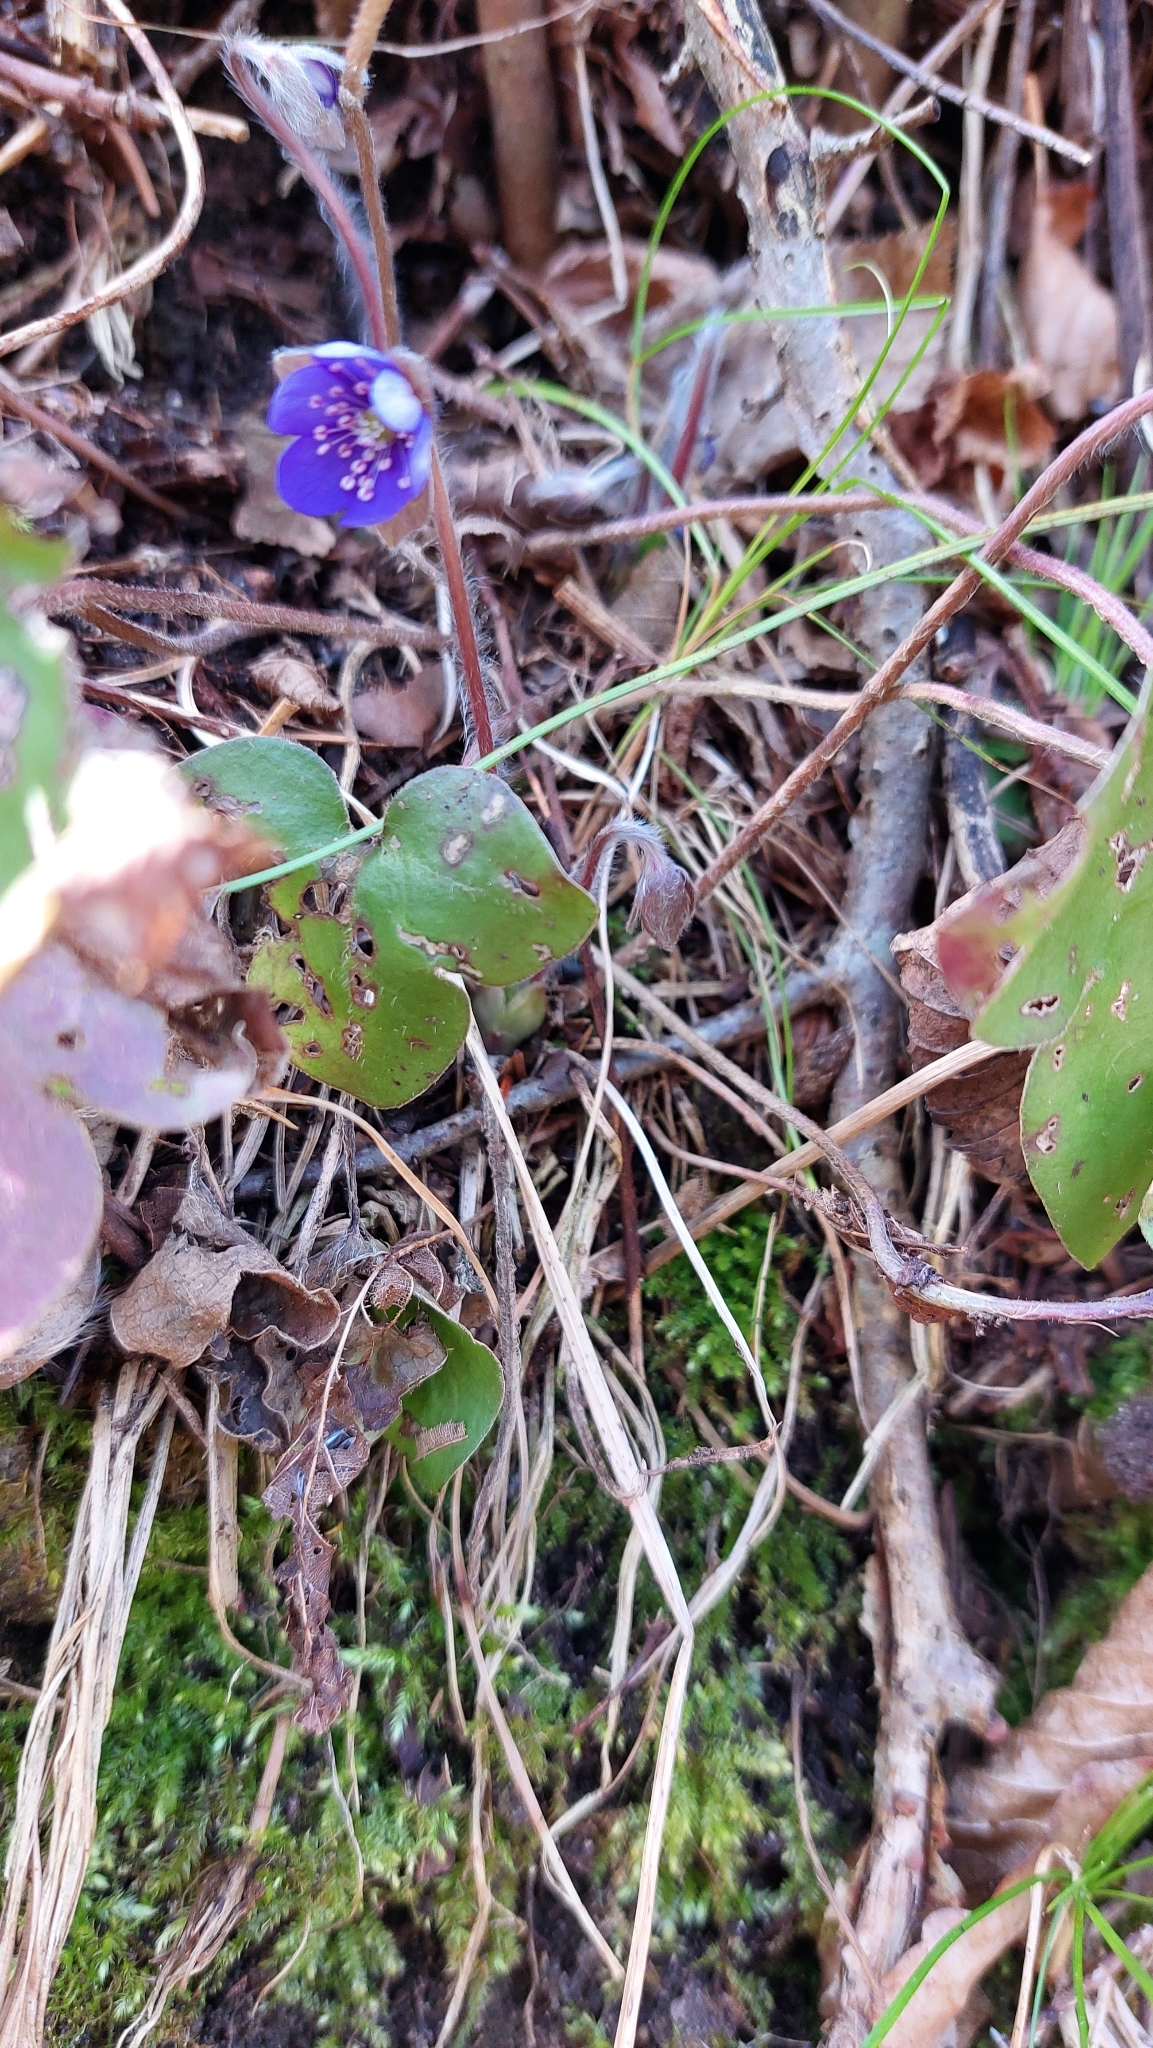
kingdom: Plantae
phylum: Tracheophyta
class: Magnoliopsida
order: Ranunculales
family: Ranunculaceae
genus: Hepatica
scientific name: Hepatica nobilis
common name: Liverleaf
